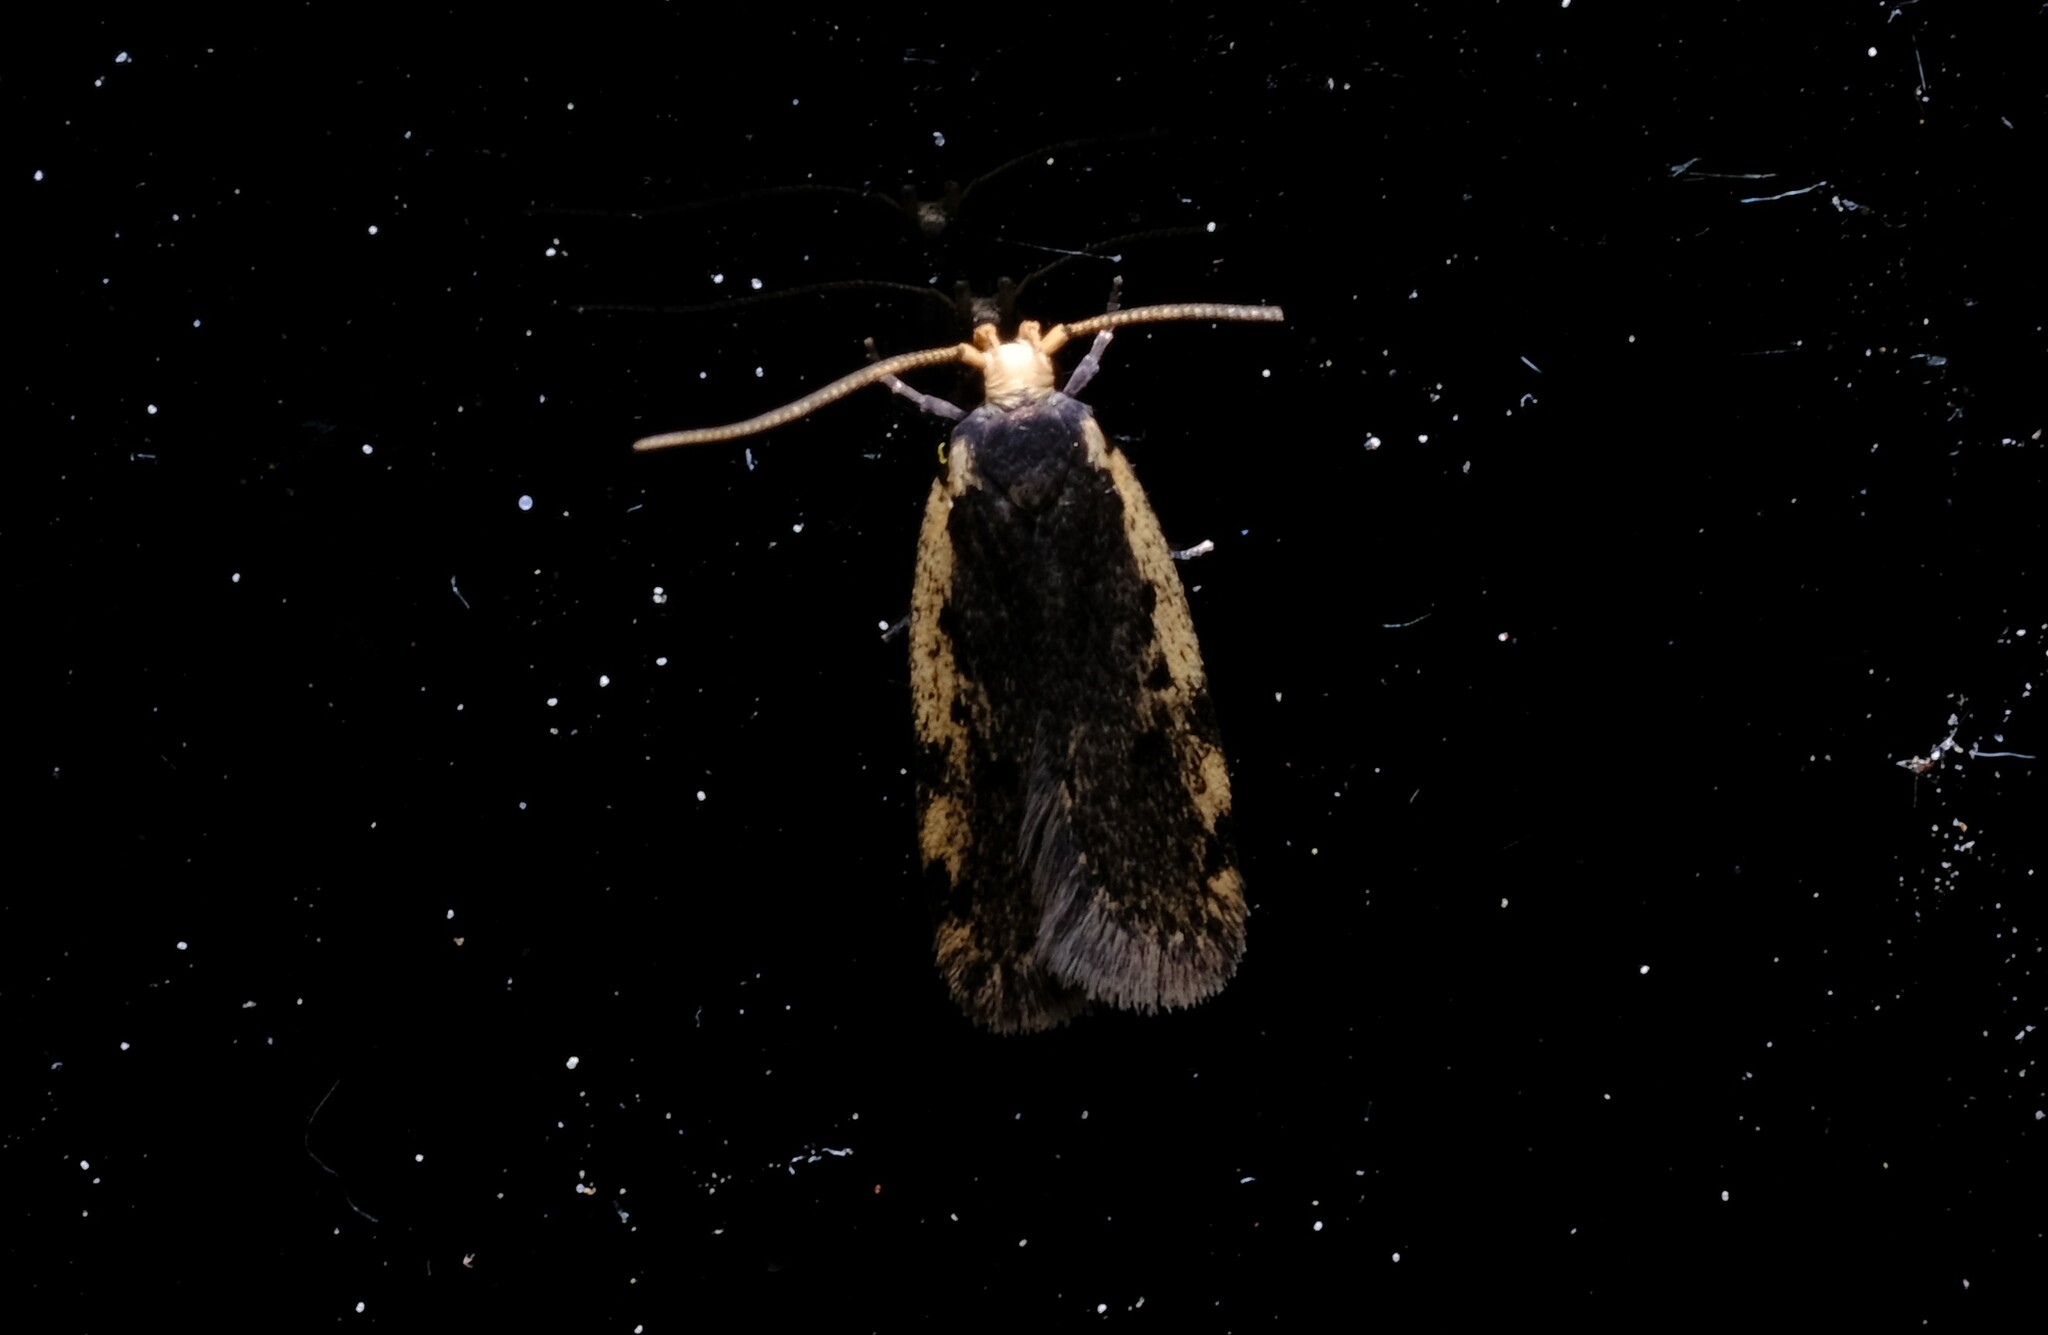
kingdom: Animalia
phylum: Arthropoda
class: Insecta
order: Lepidoptera
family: Oecophoridae
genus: Hoplostega
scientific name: Hoplostega ochroma
